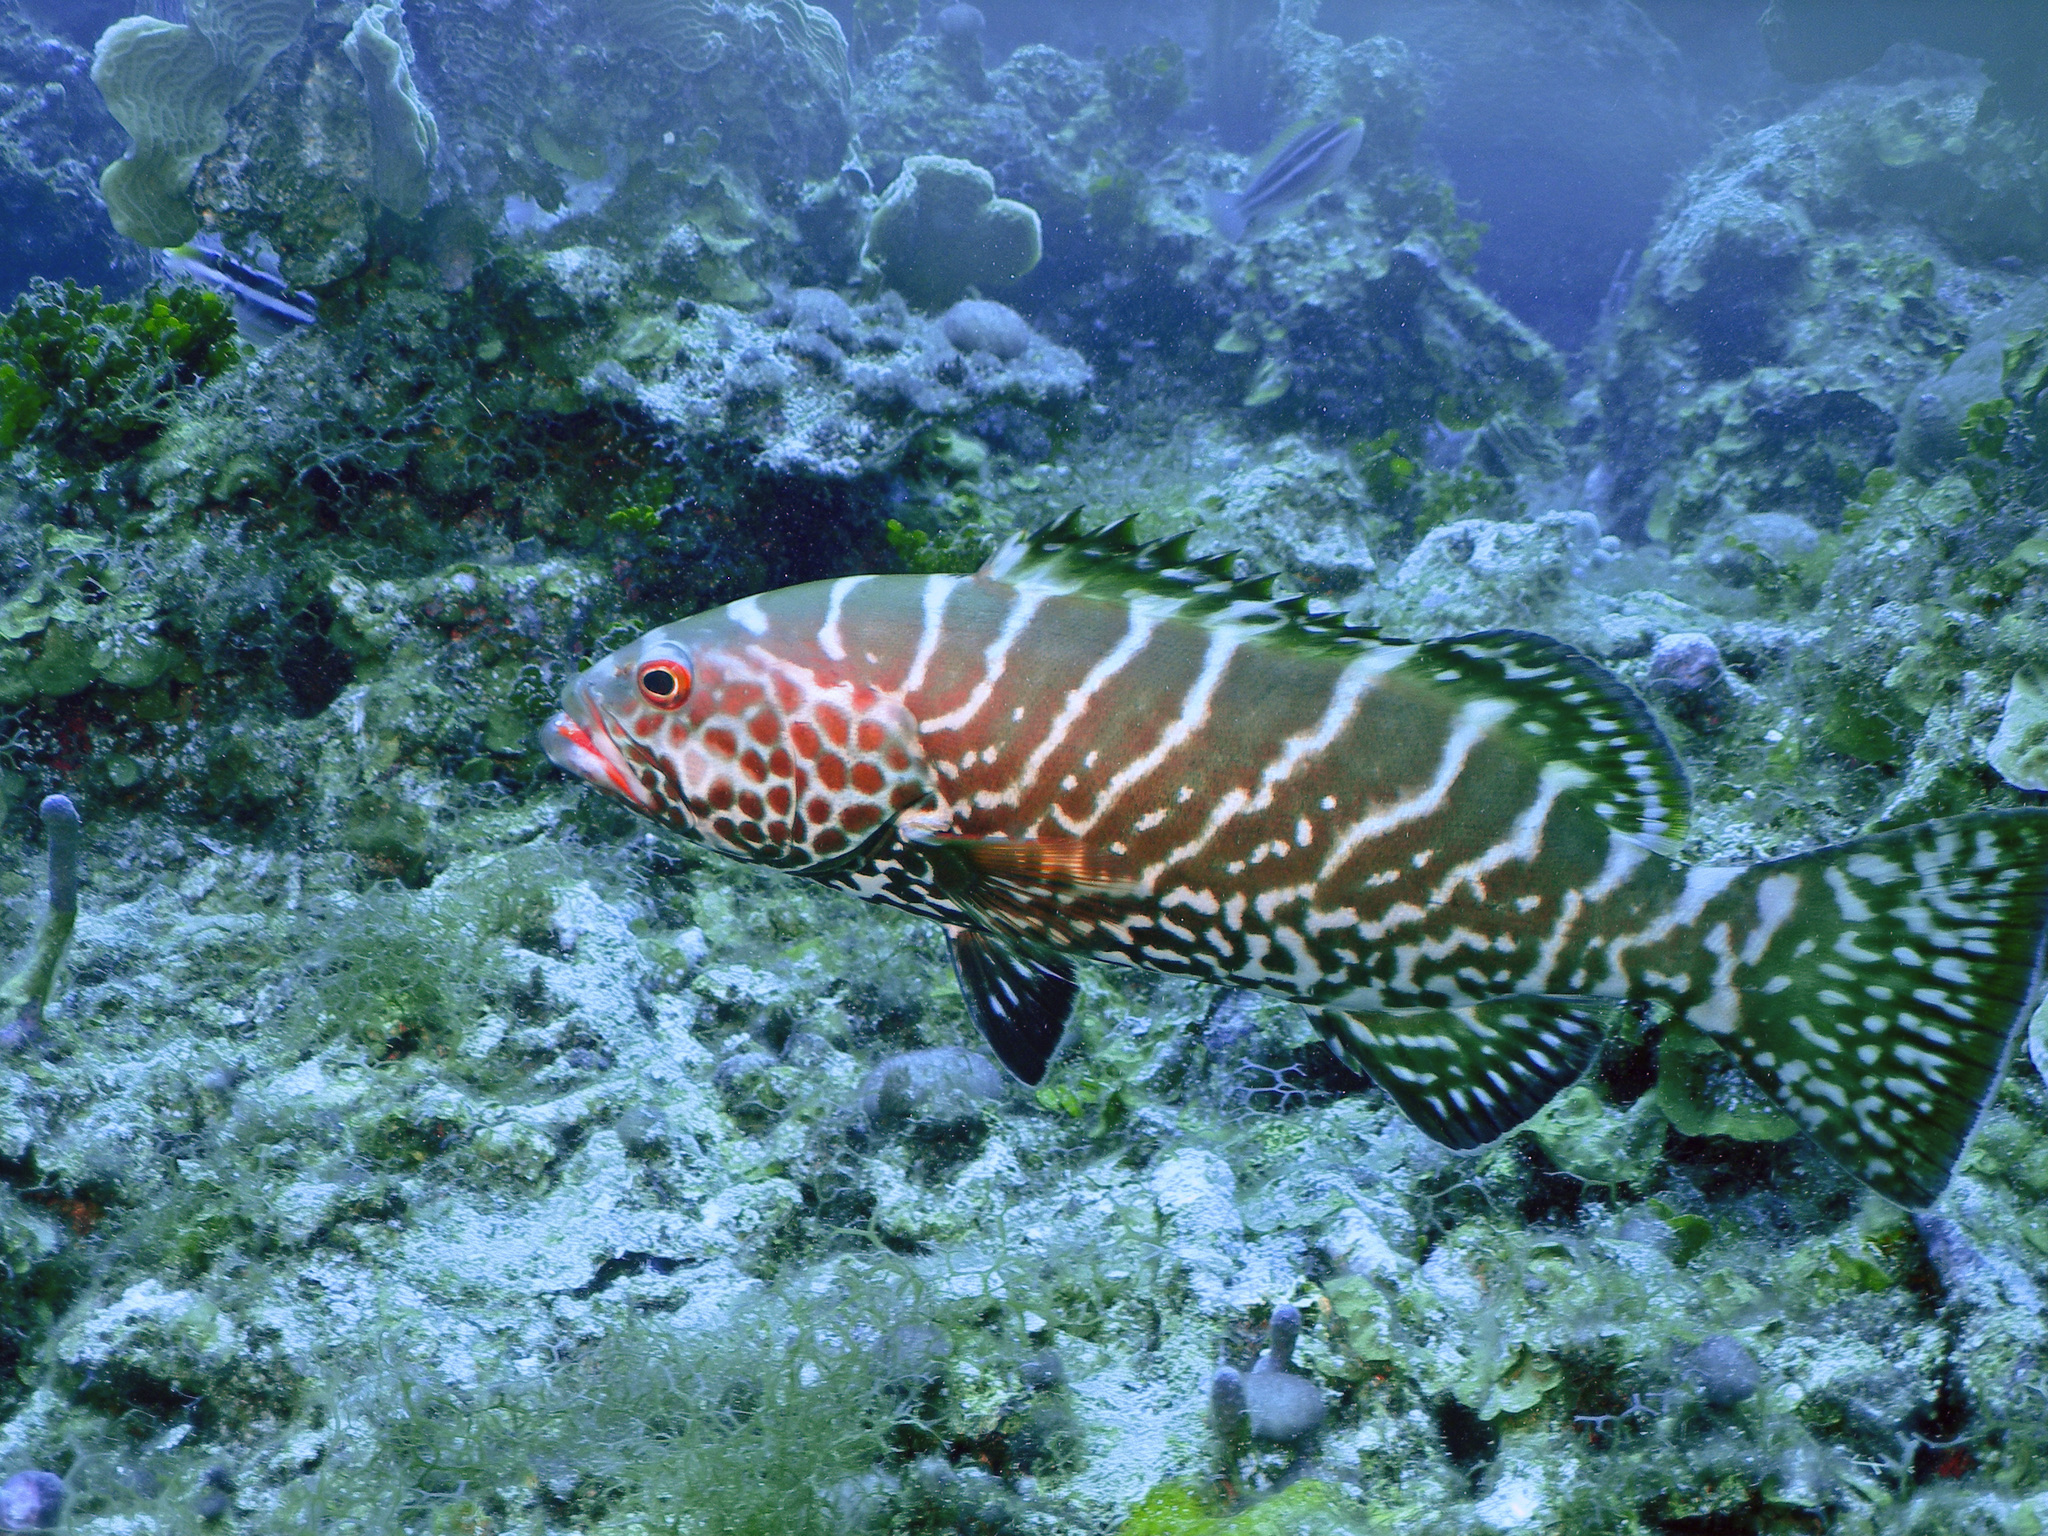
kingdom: Animalia
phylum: Chordata
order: Perciformes
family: Serranidae
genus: Mycteroperca
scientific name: Mycteroperca tigris
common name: Tiger grouper
